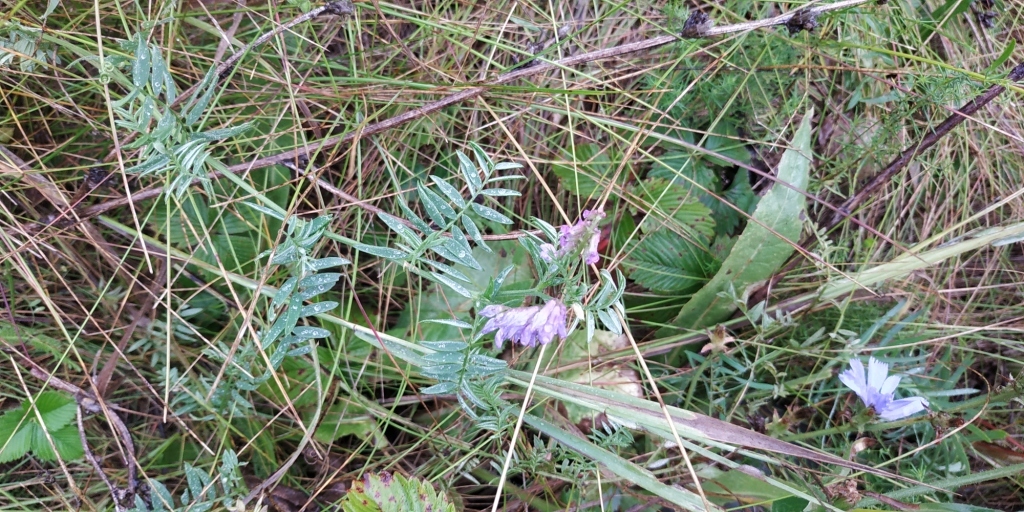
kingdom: Plantae
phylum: Tracheophyta
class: Magnoliopsida
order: Fabales
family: Fabaceae
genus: Vicia
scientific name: Vicia cracca
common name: Bird vetch
